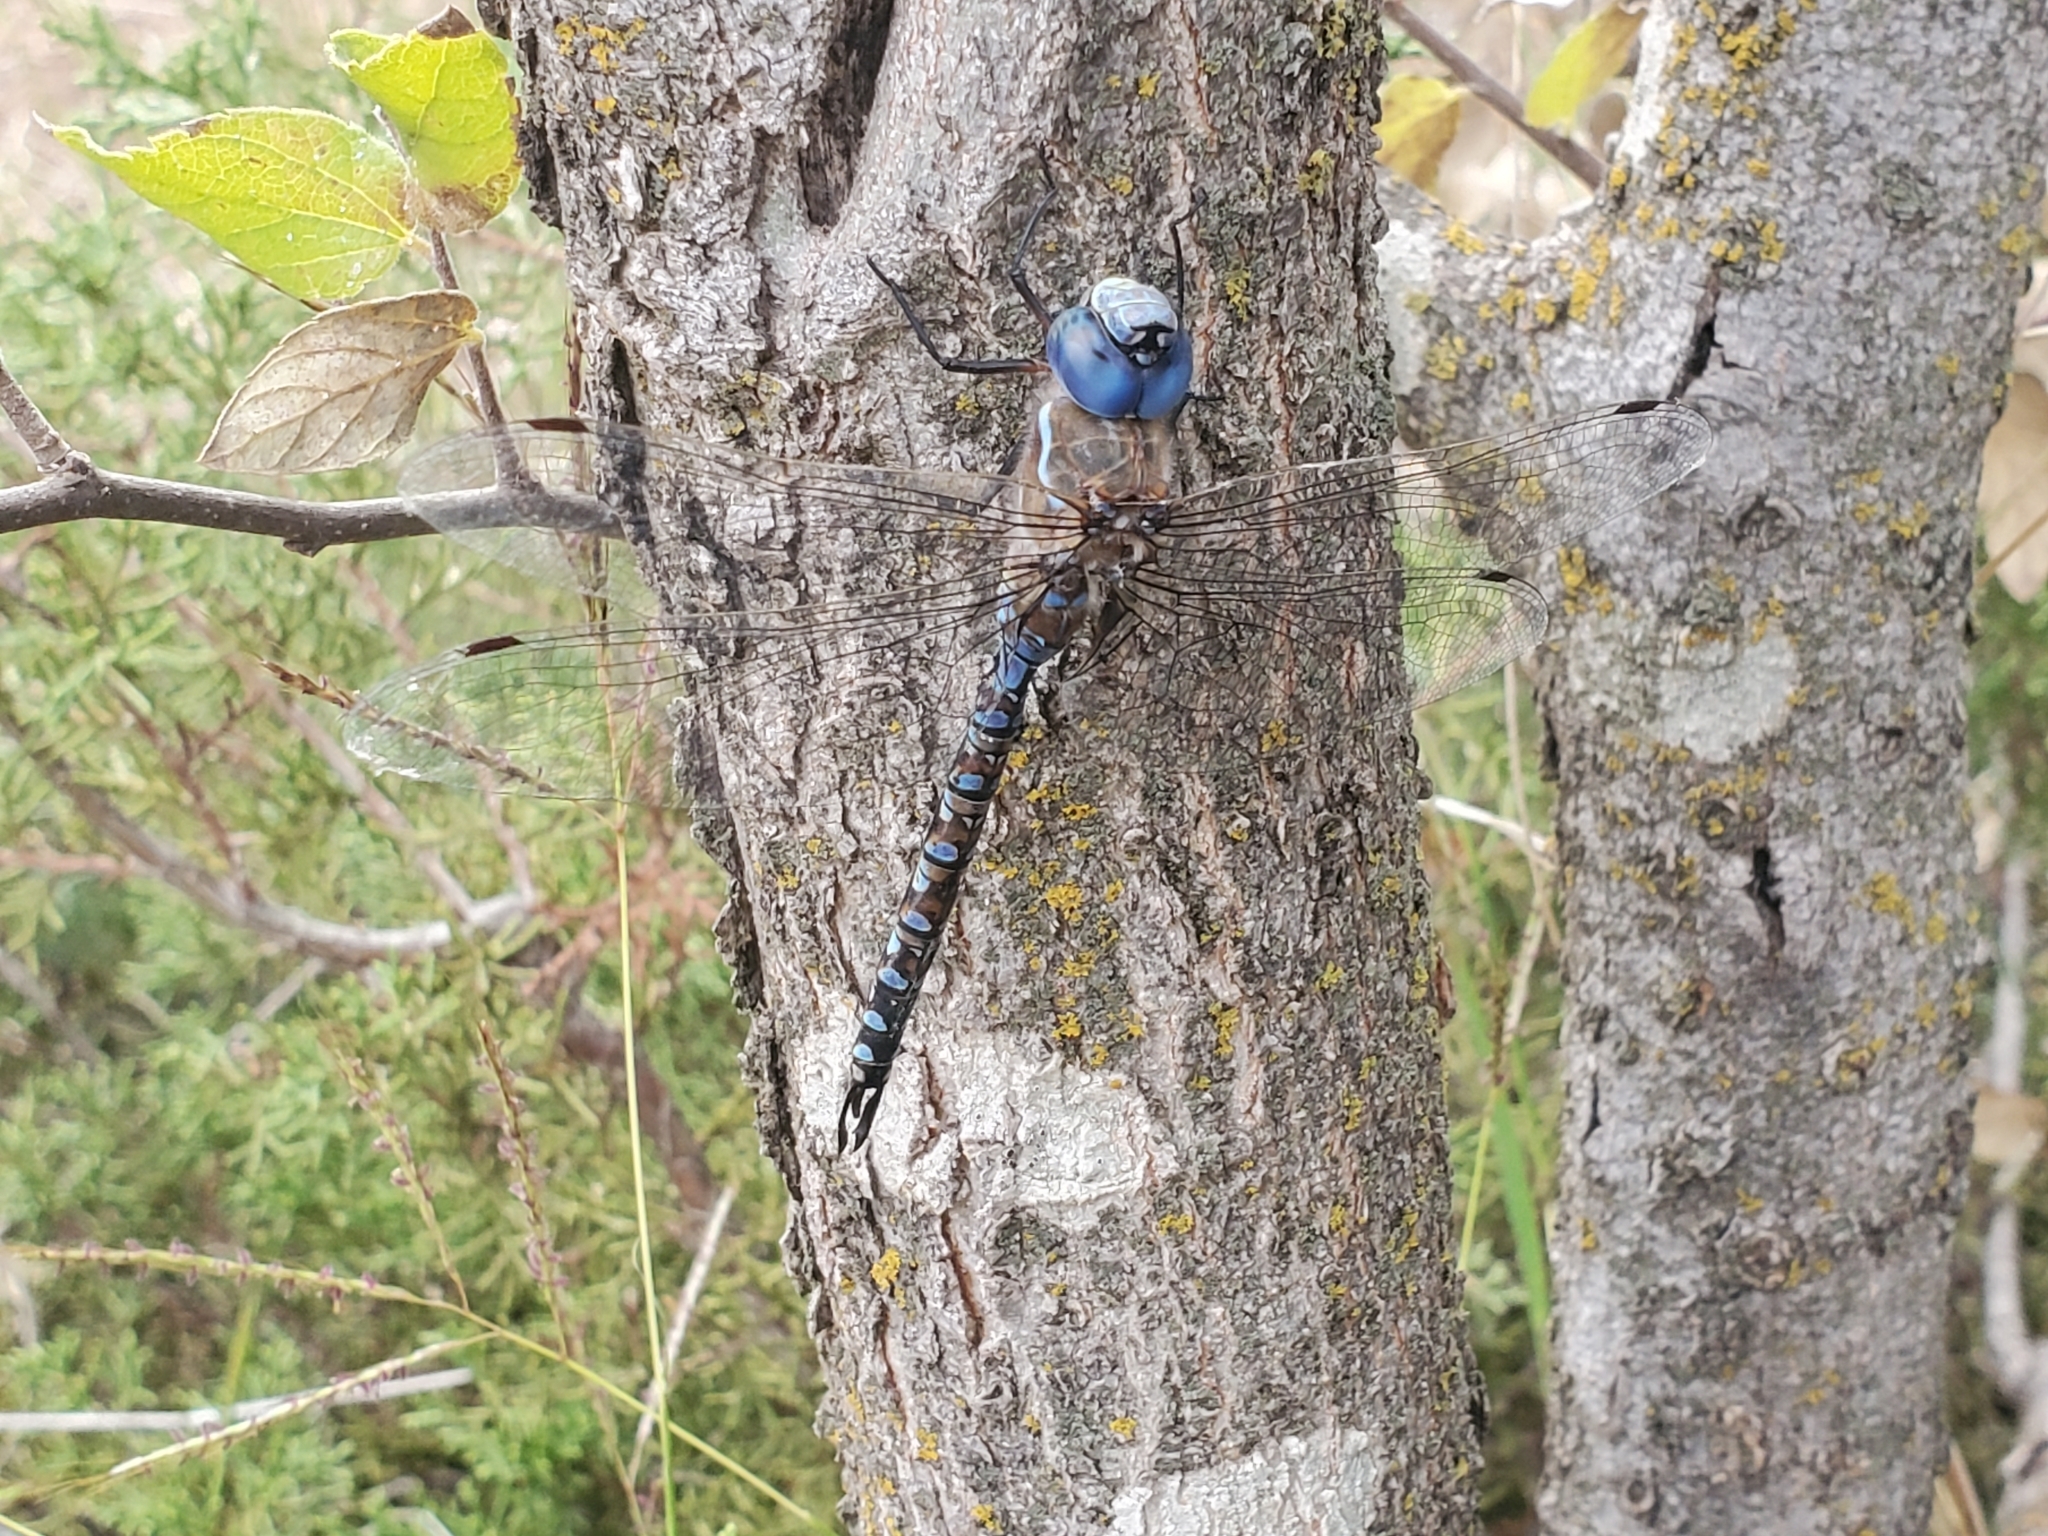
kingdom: Animalia
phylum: Arthropoda
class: Insecta
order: Odonata
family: Aeshnidae
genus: Rhionaeschna
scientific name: Rhionaeschna multicolor
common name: Blue-eyed darner
